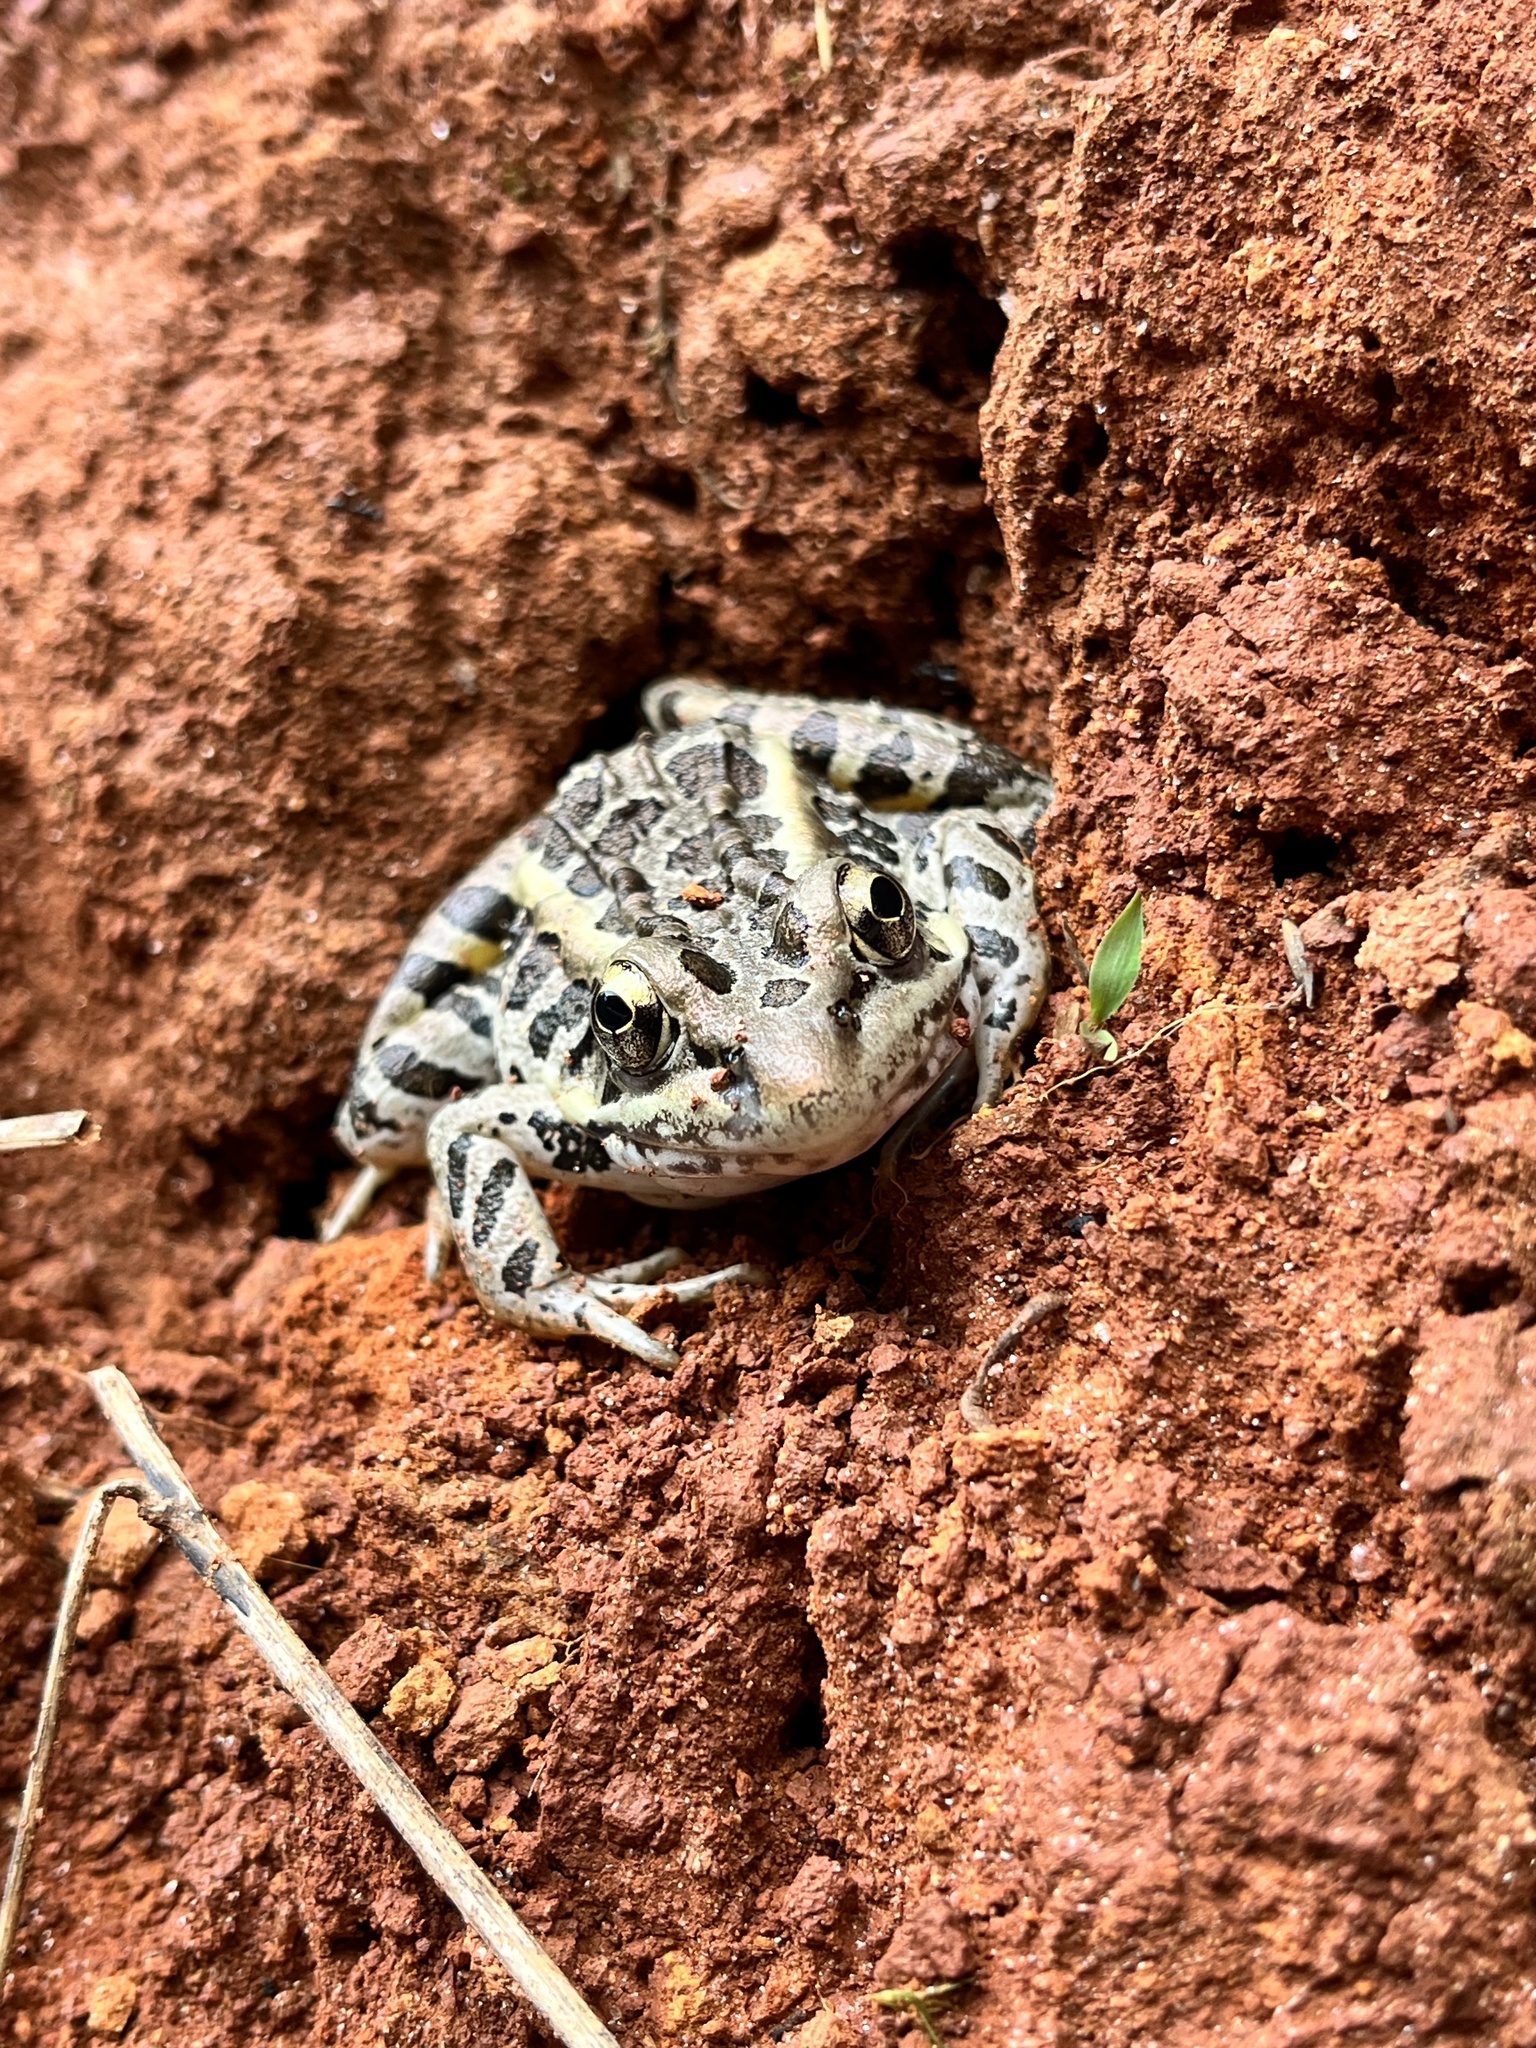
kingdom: Animalia
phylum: Chordata
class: Amphibia
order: Anura
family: Ranidae
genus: Lithobates
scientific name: Lithobates palustris
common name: Pickerel frog
